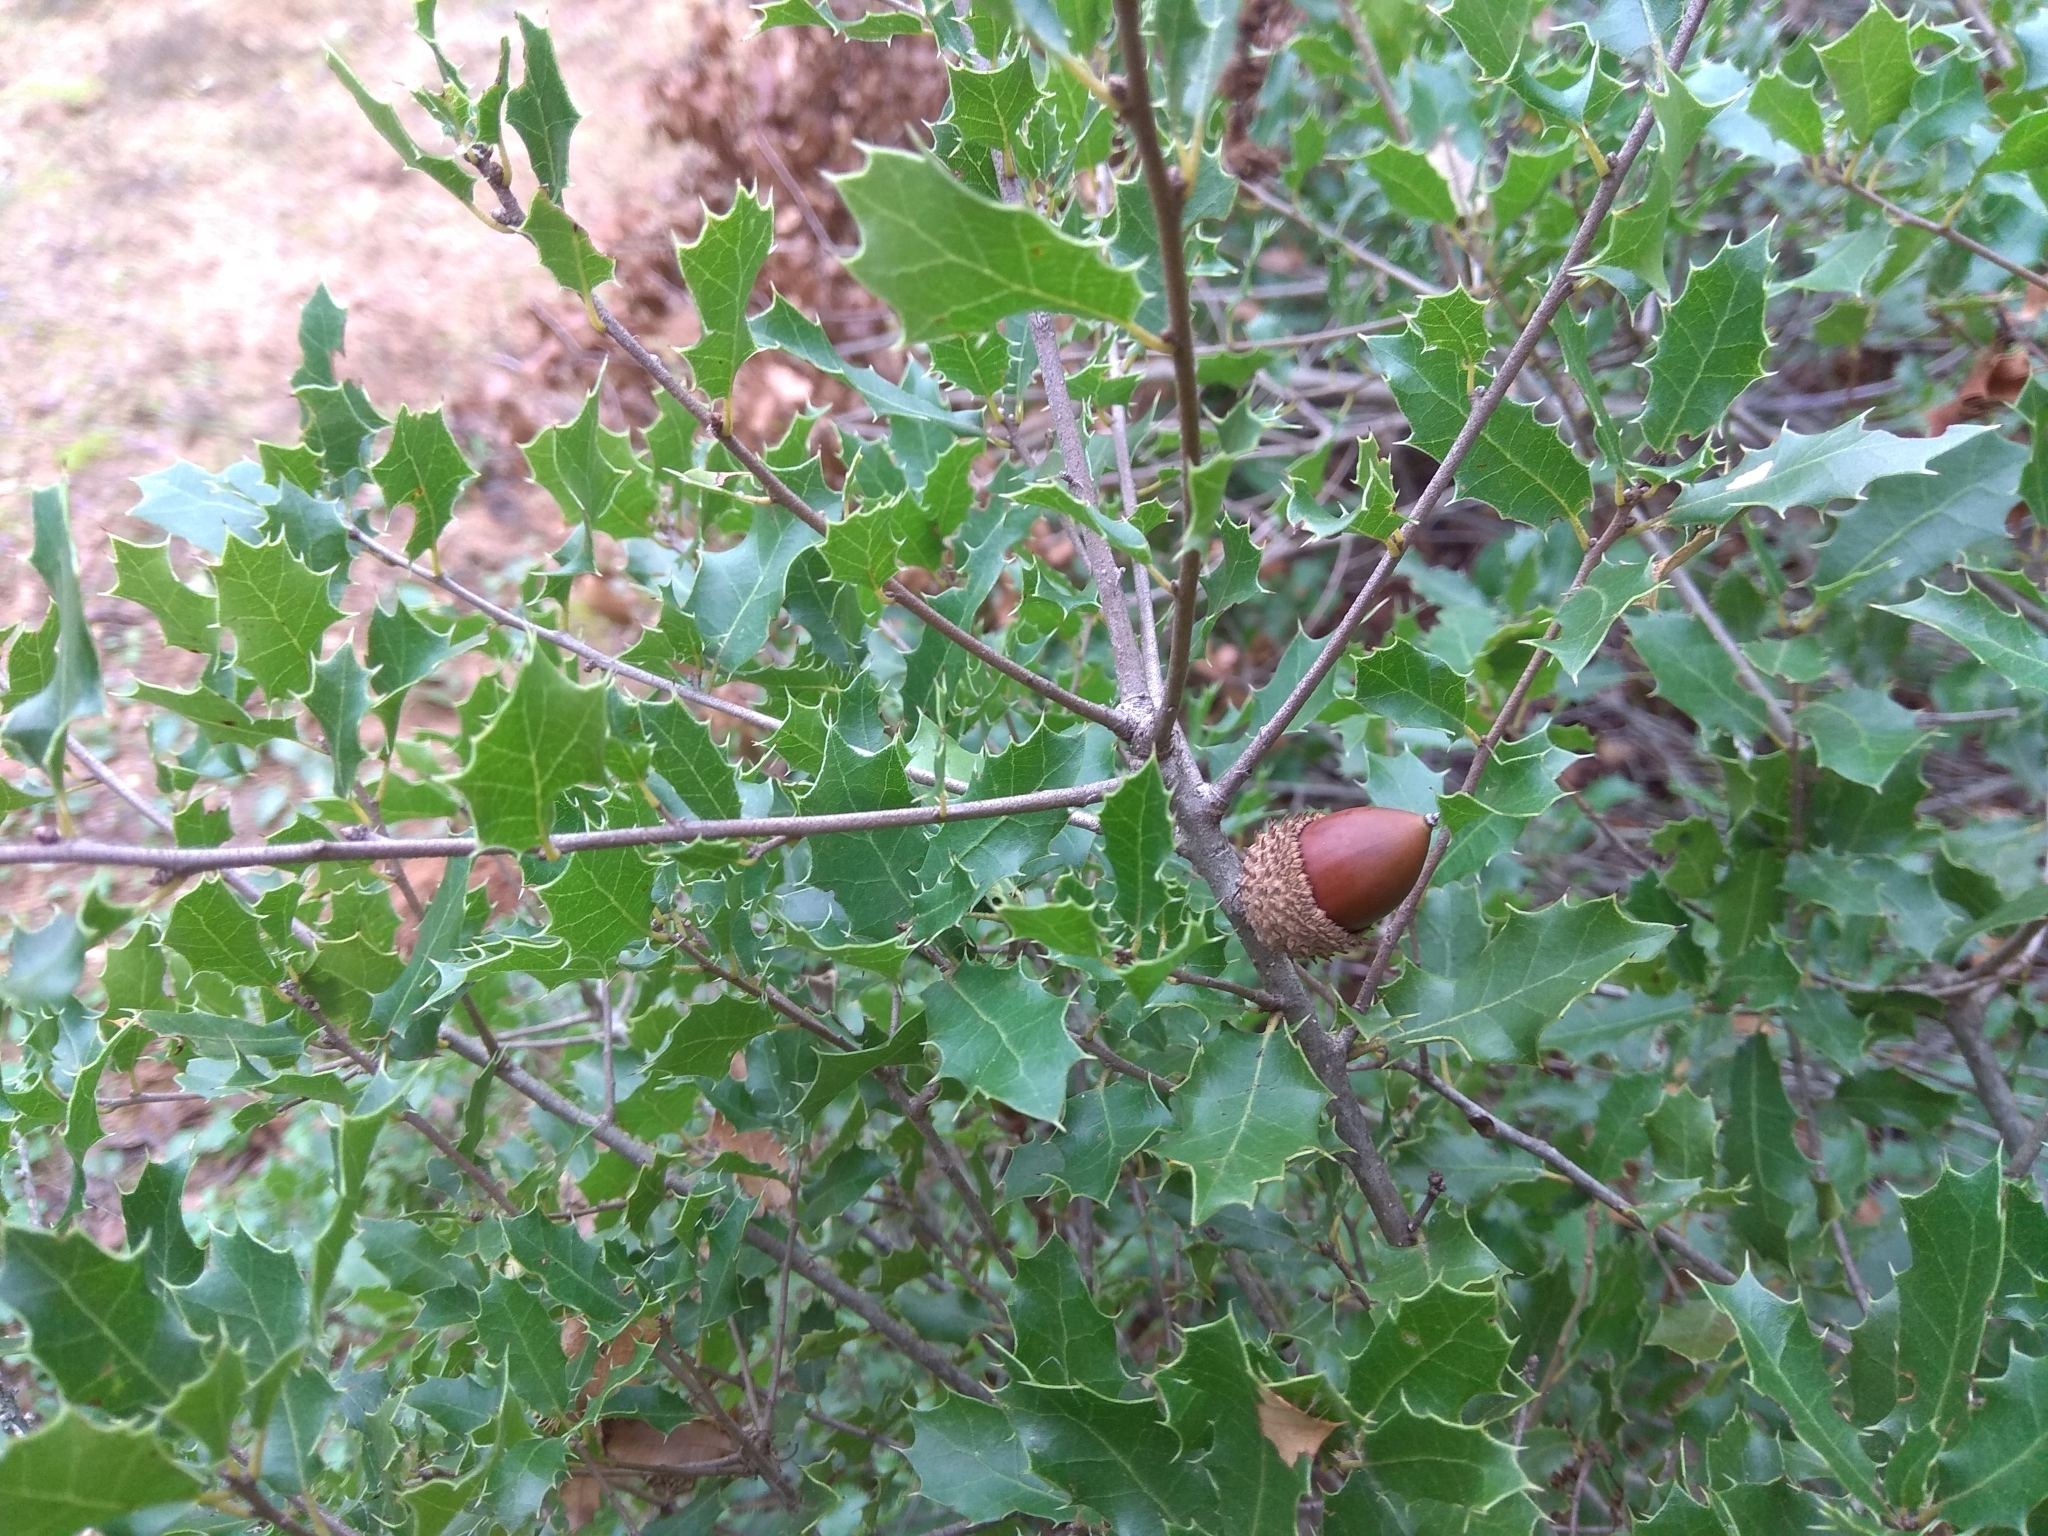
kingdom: Plantae
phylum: Tracheophyta
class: Magnoliopsida
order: Fagales
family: Fagaceae
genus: Quercus
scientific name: Quercus coccifera
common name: Kermes oak
